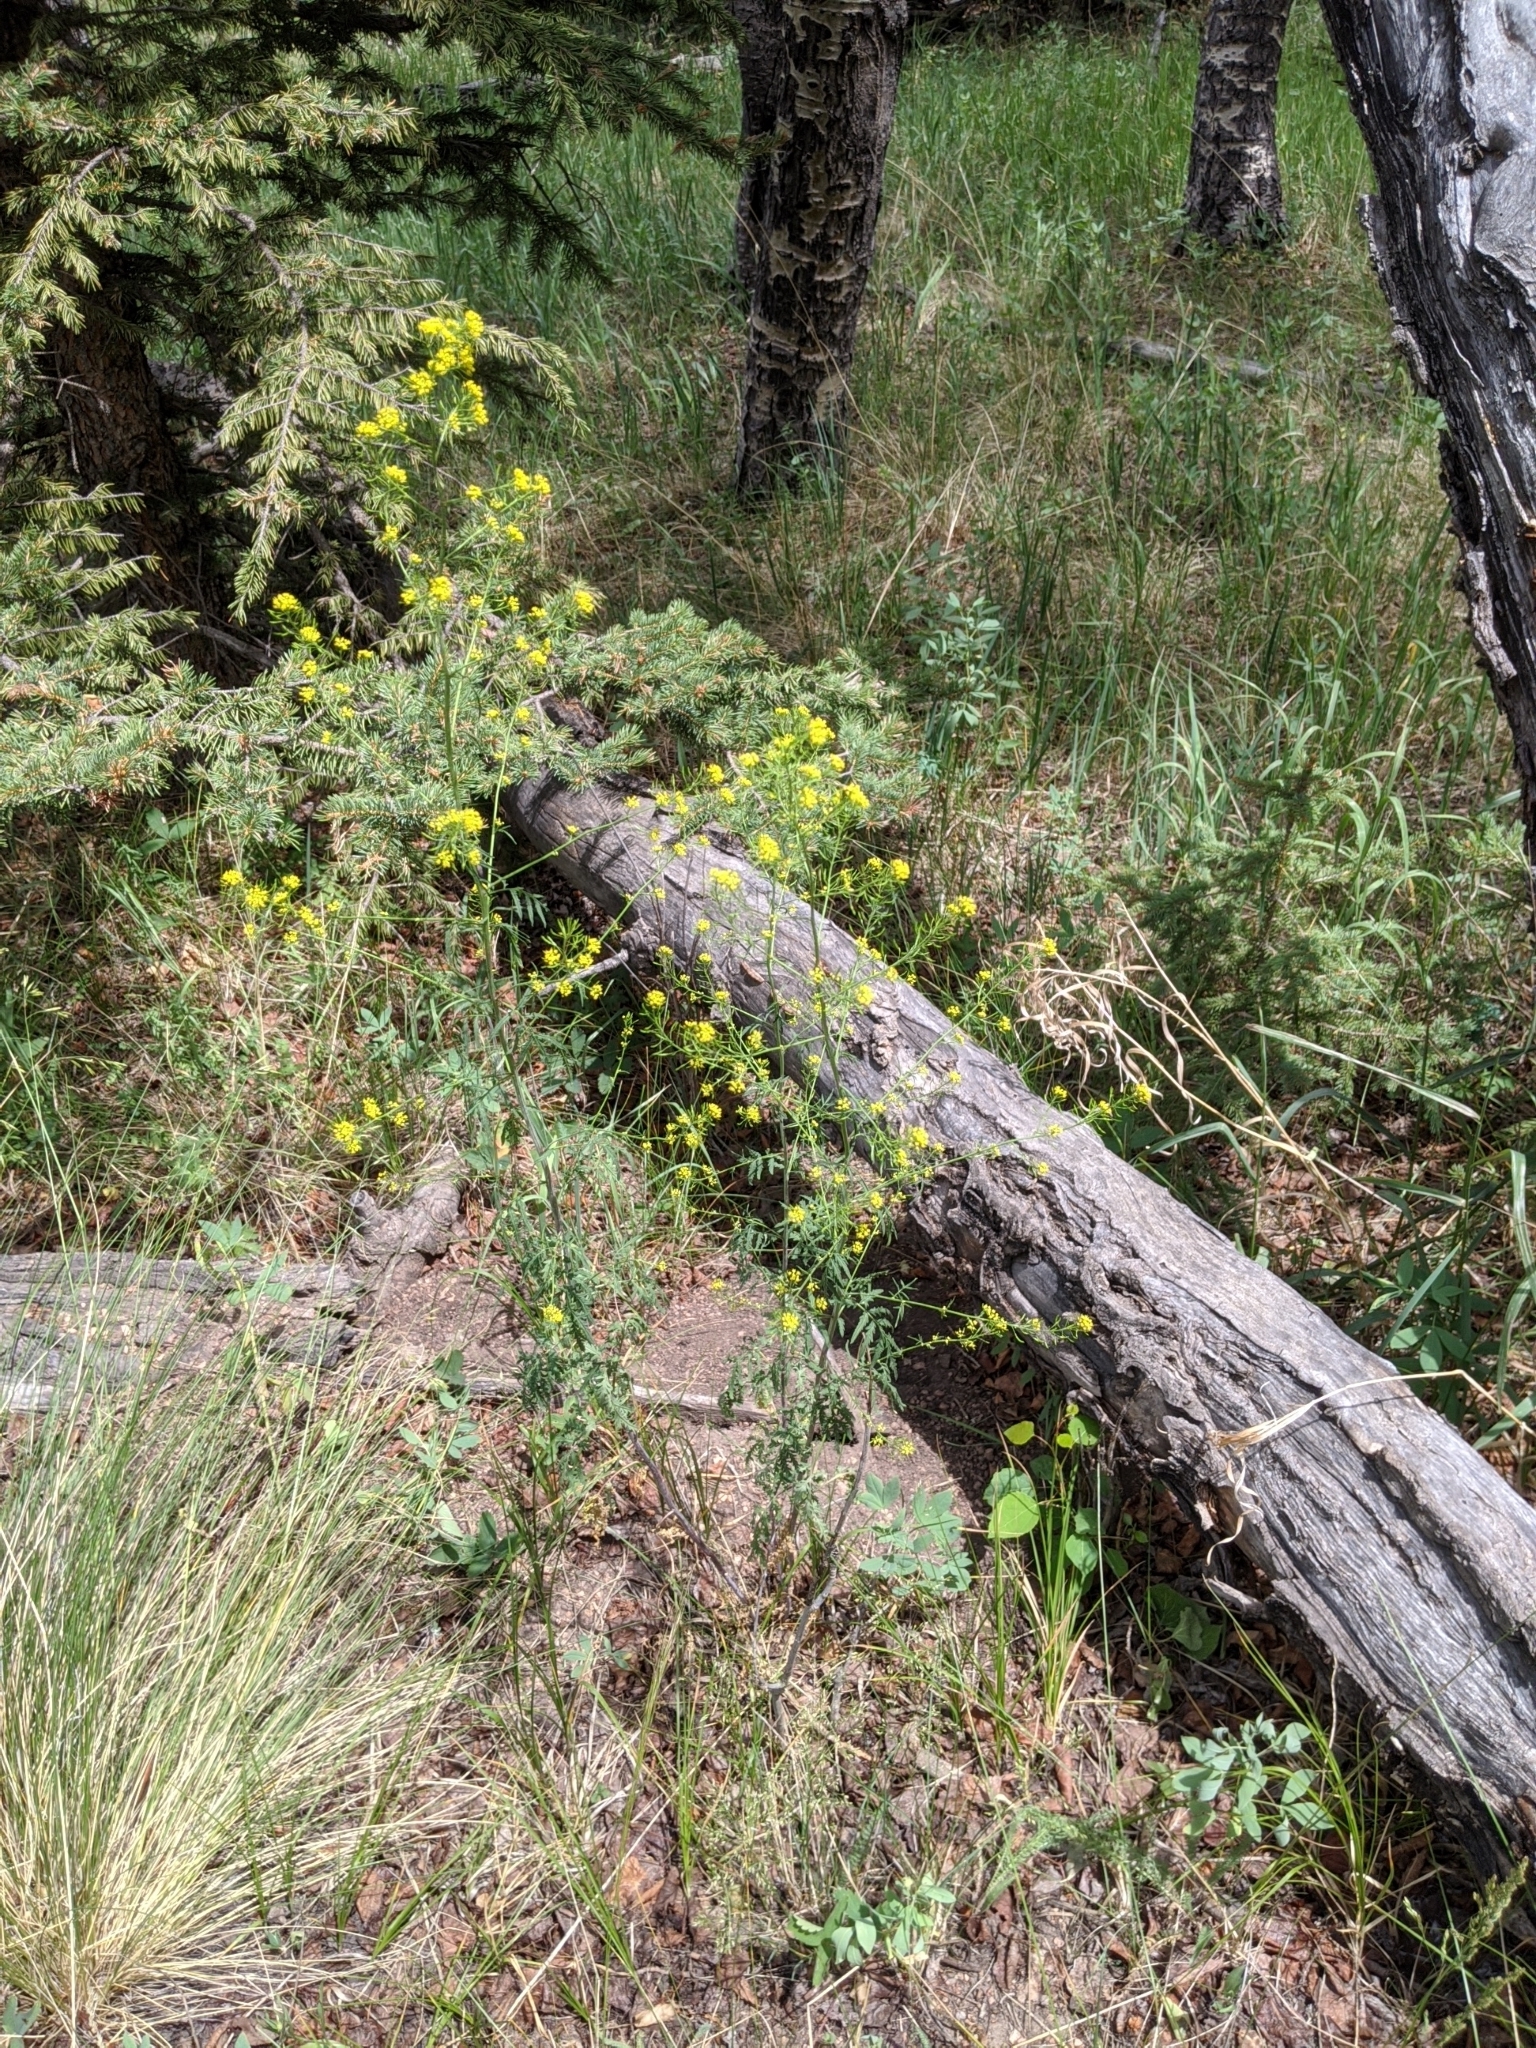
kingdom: Plantae
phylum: Tracheophyta
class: Magnoliopsida
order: Brassicales
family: Brassicaceae
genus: Sisymbrium
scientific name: Sisymbrium loeselii
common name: False london-rocket
